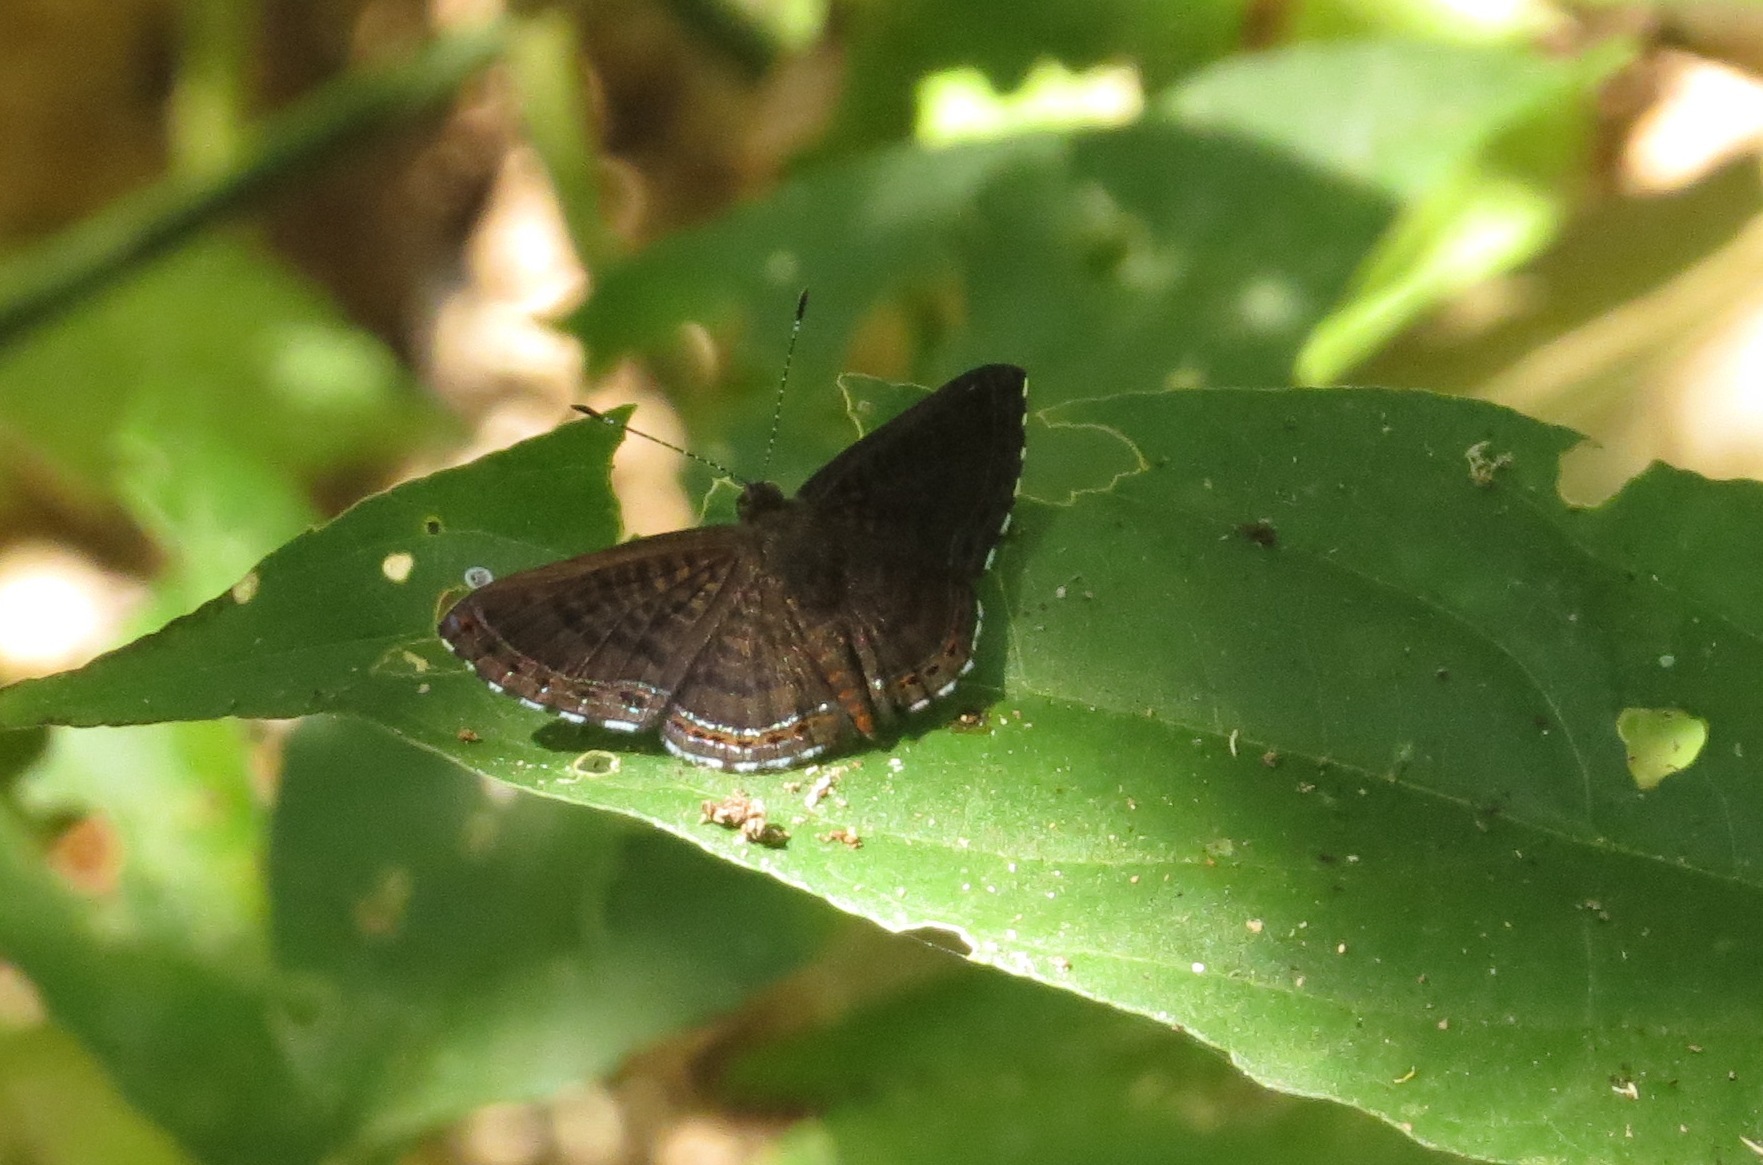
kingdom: Animalia
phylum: Arthropoda
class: Insecta
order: Lepidoptera
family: Riodinidae
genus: Detritivora
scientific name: Detritivora
